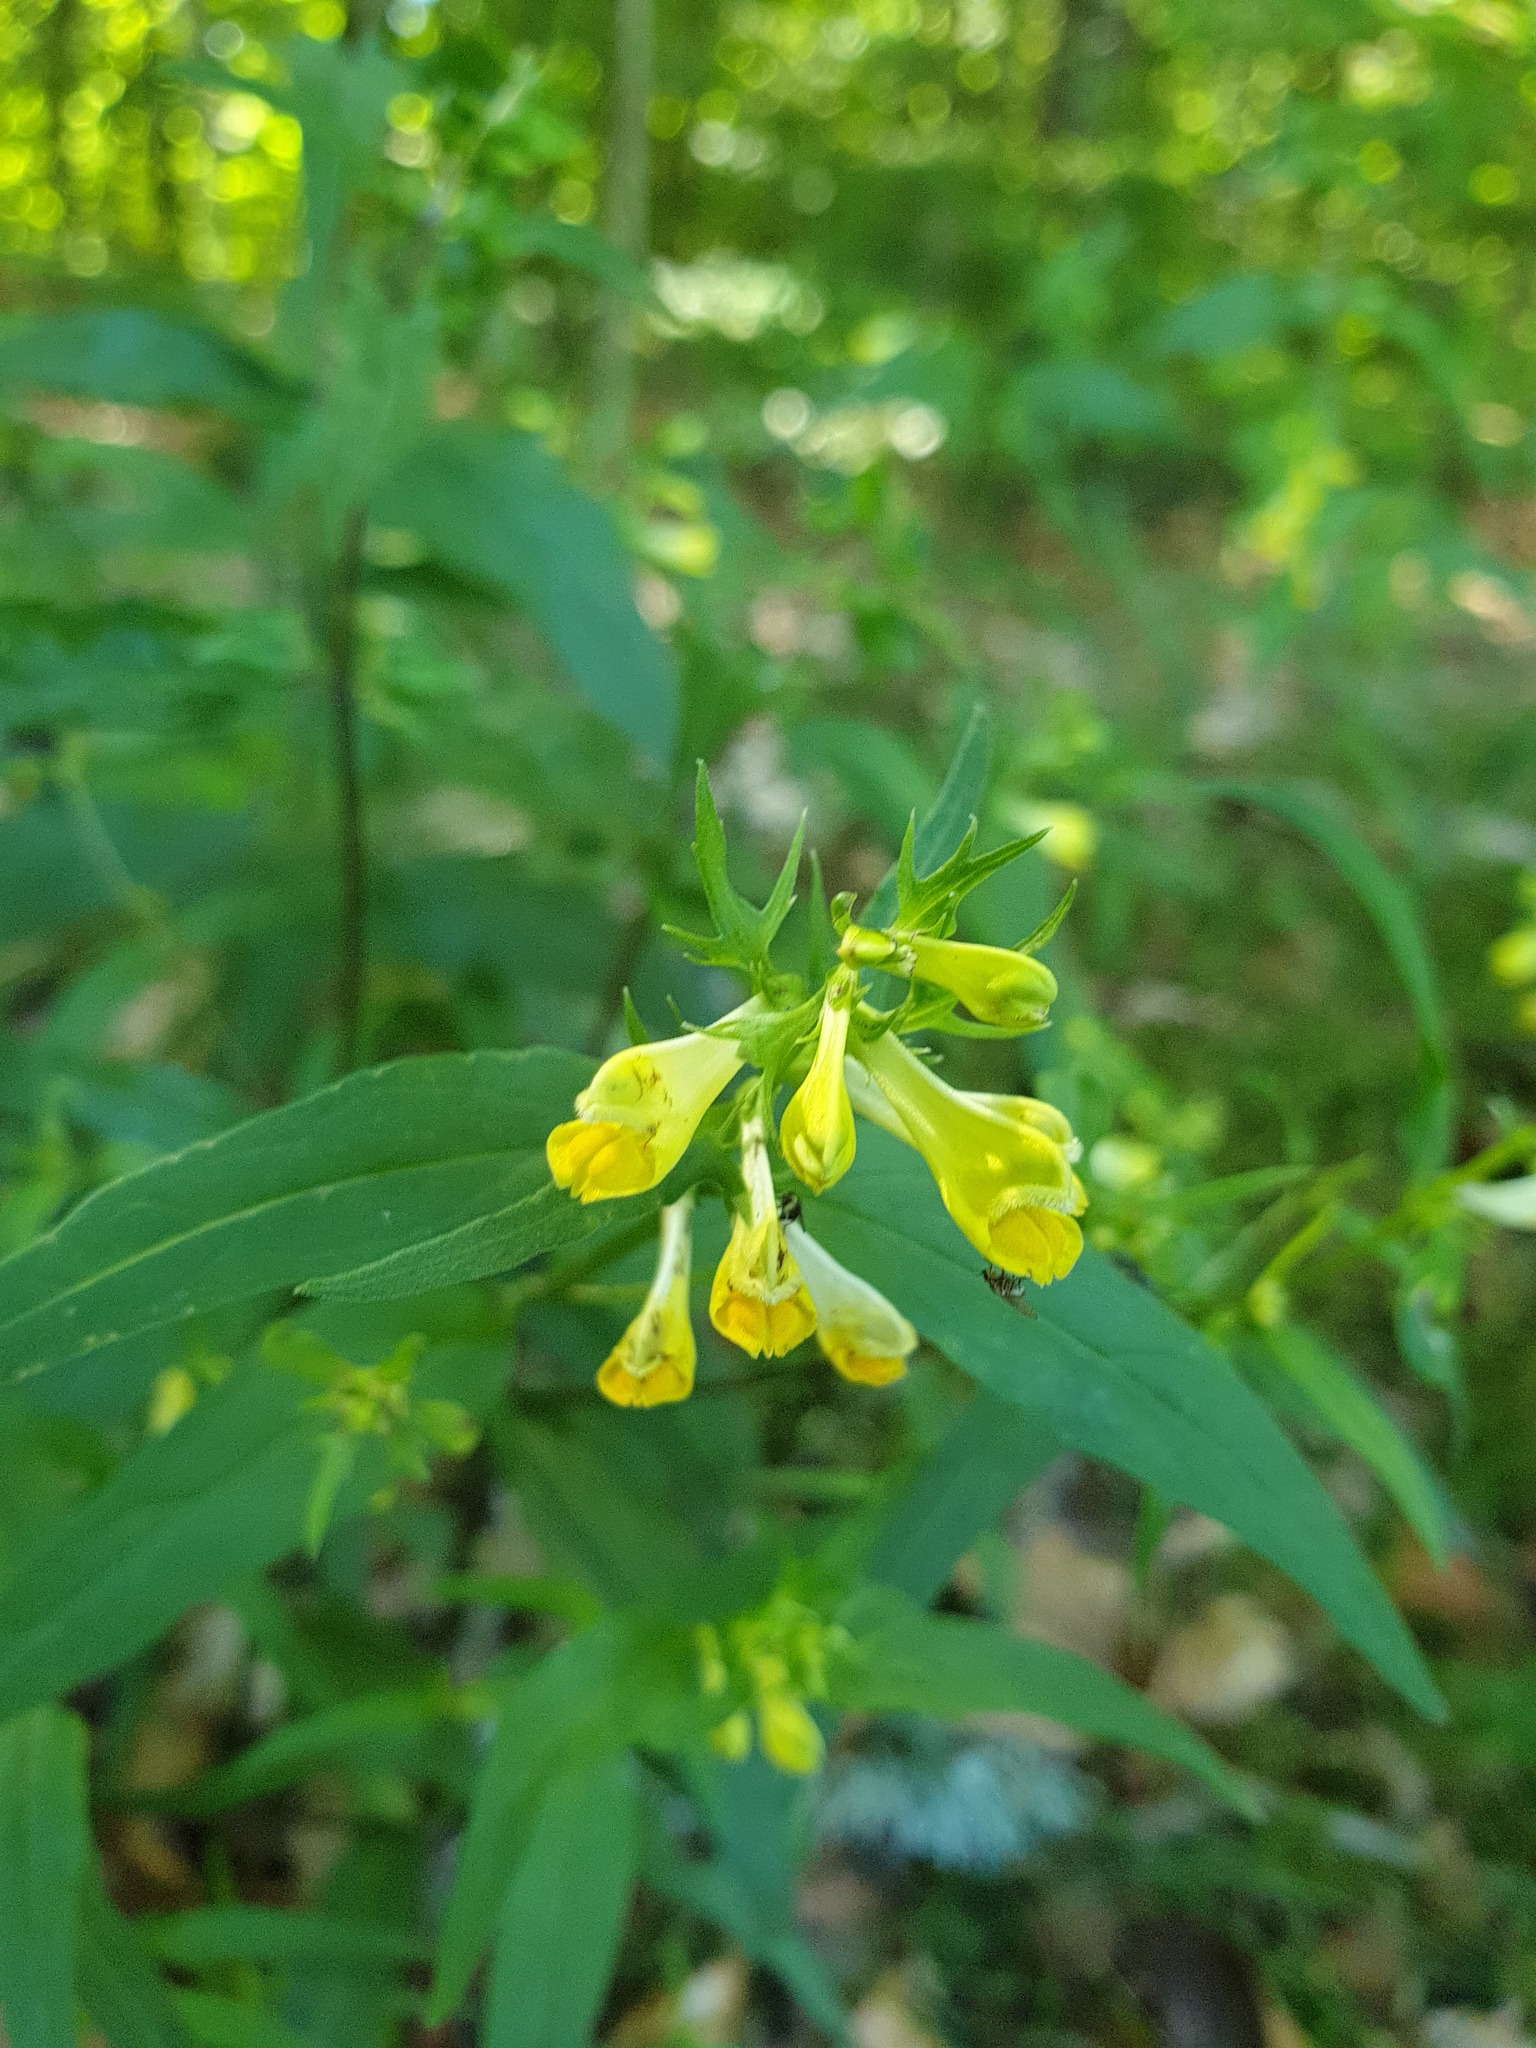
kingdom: Plantae
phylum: Tracheophyta
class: Magnoliopsida
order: Lamiales
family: Orobanchaceae
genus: Melampyrum
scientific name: Melampyrum pratense
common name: Common cow-wheat
